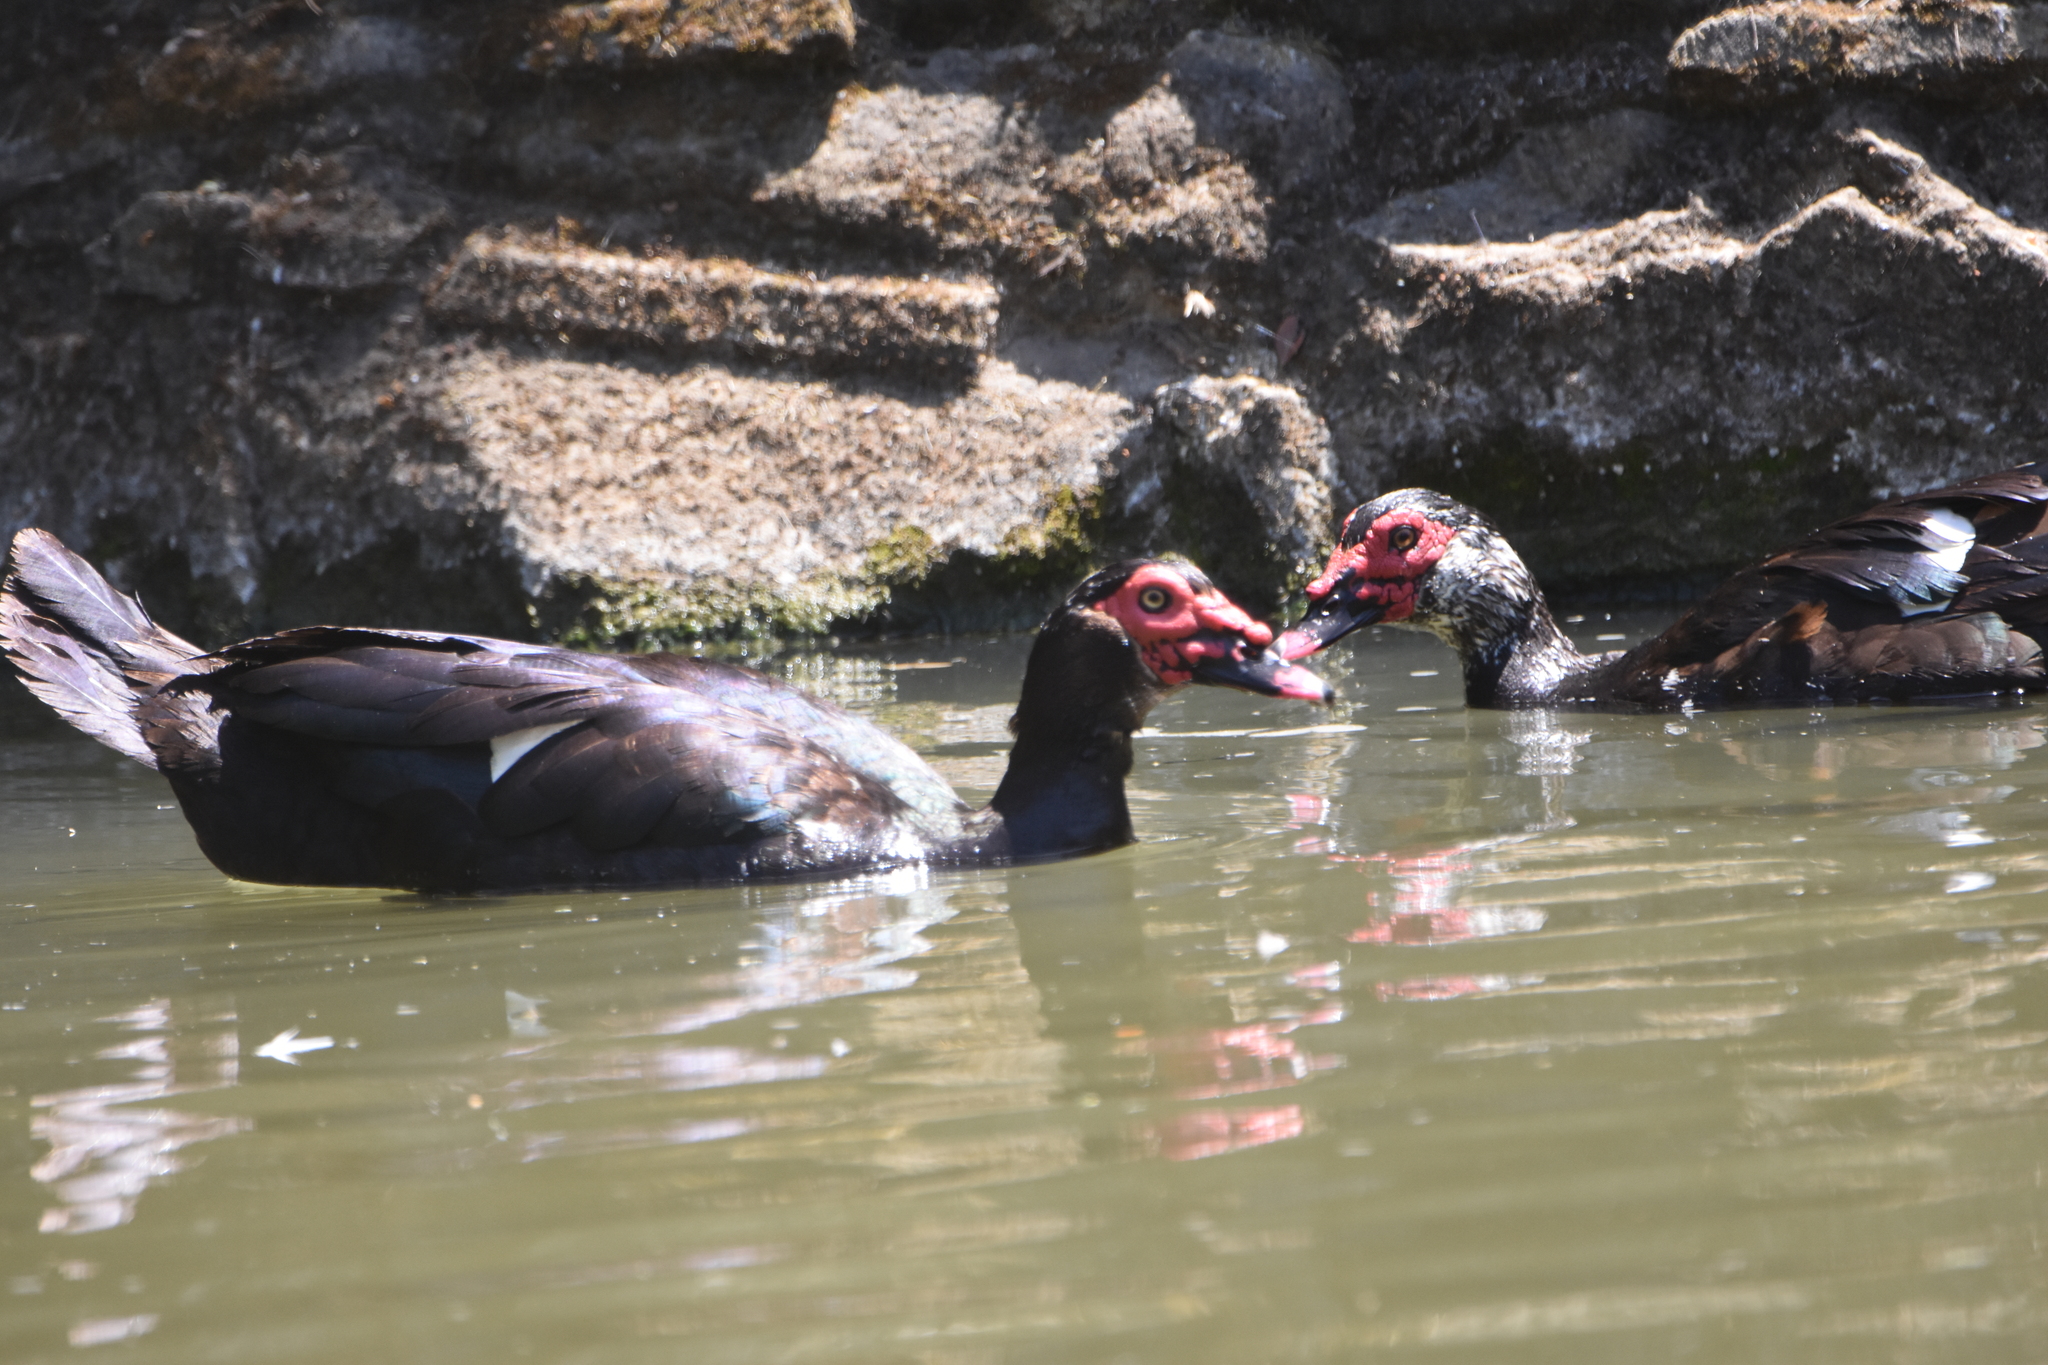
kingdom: Animalia
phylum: Chordata
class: Aves
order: Anseriformes
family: Anatidae
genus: Cairina
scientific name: Cairina moschata
